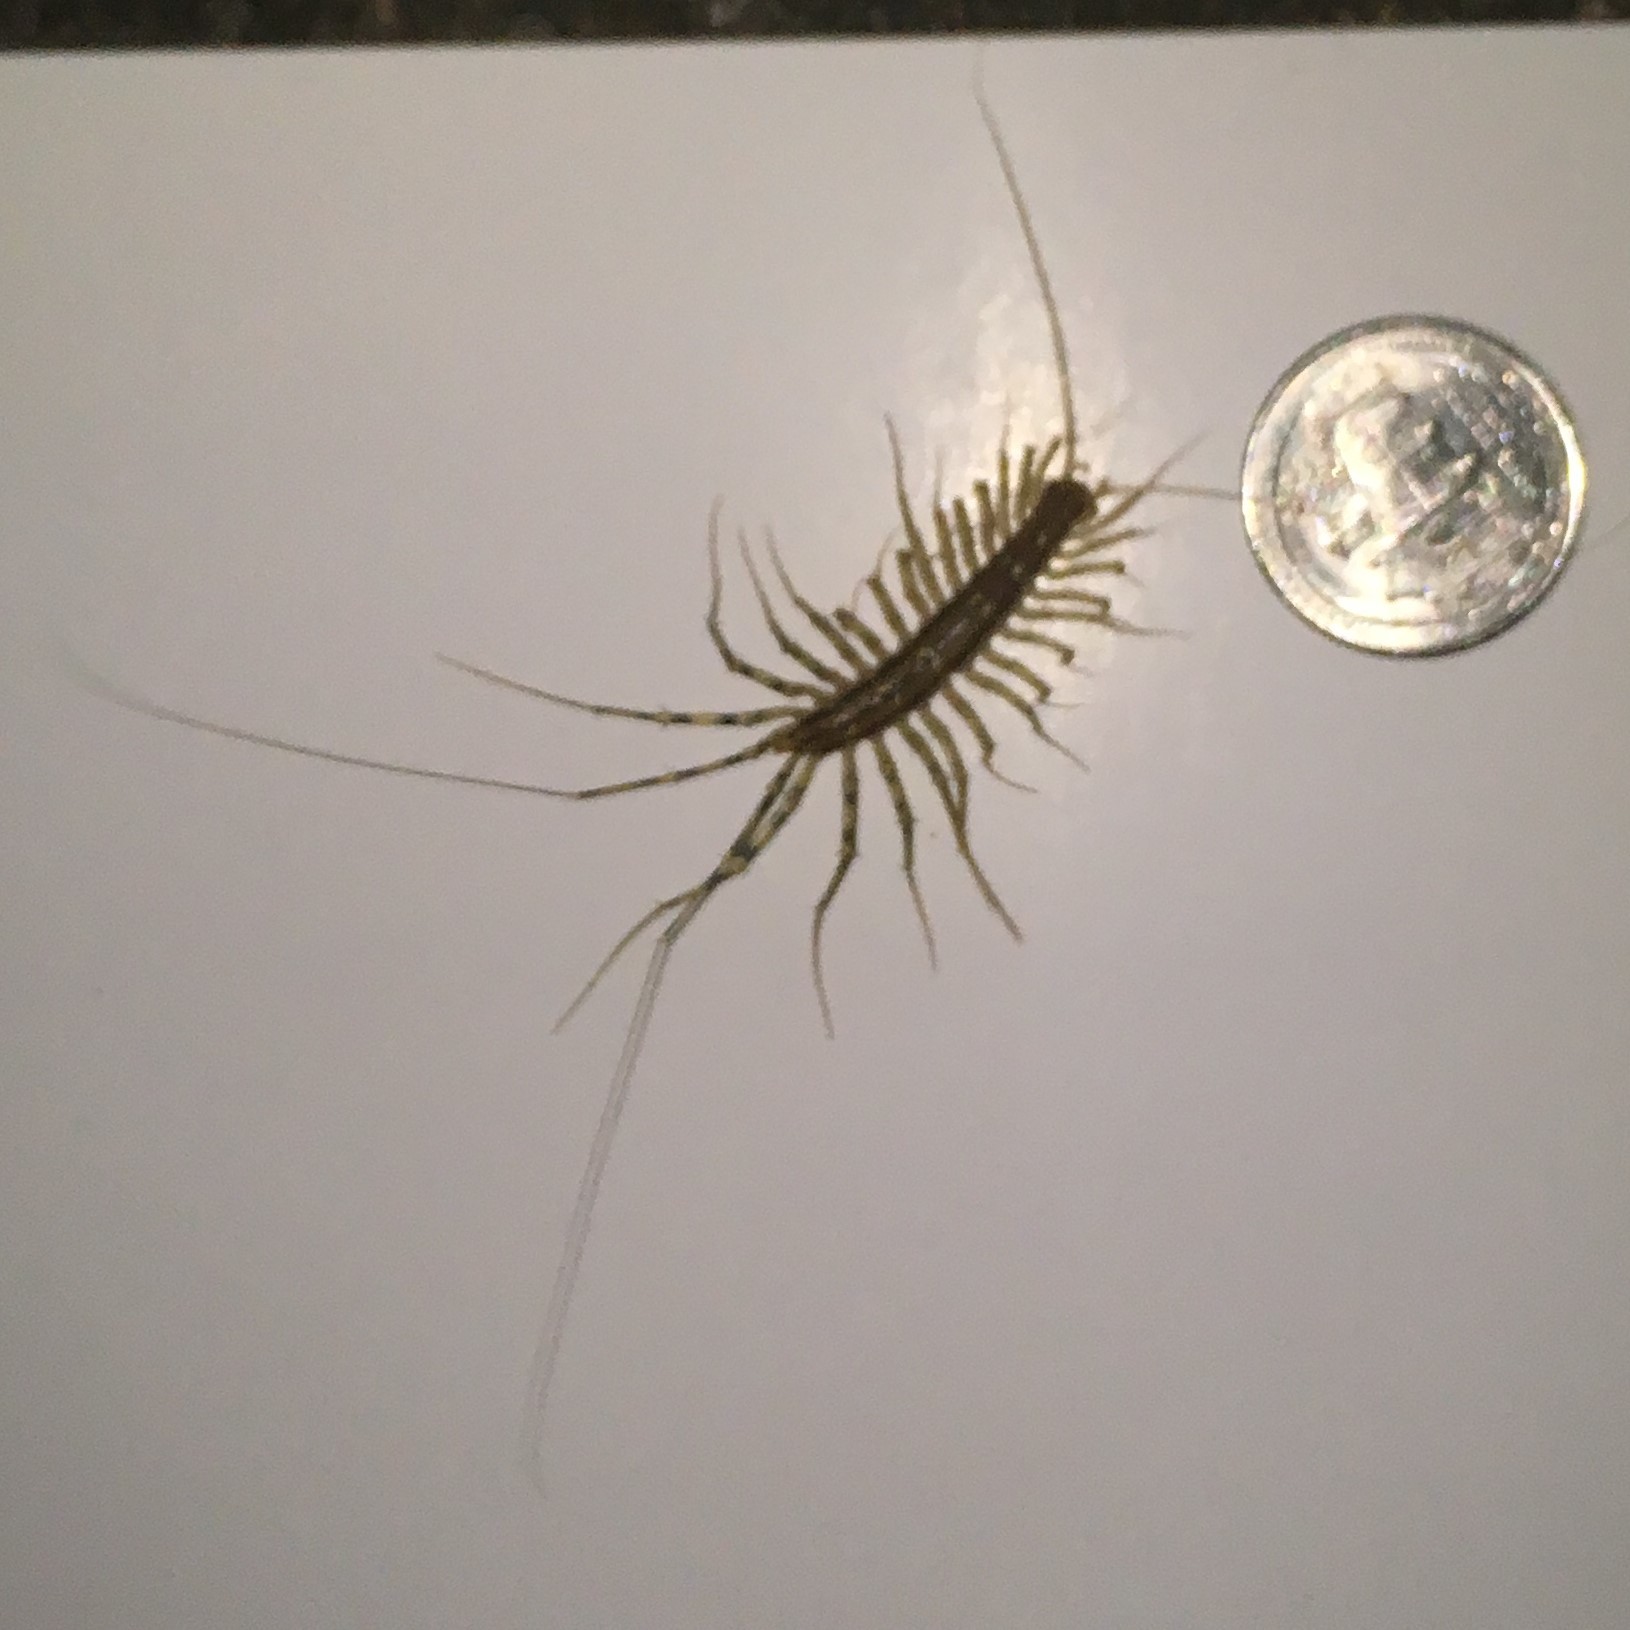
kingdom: Animalia
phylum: Arthropoda
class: Chilopoda
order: Scutigeromorpha
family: Scutigeridae
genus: Scutigera
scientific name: Scutigera coleoptrata
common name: House centipede
